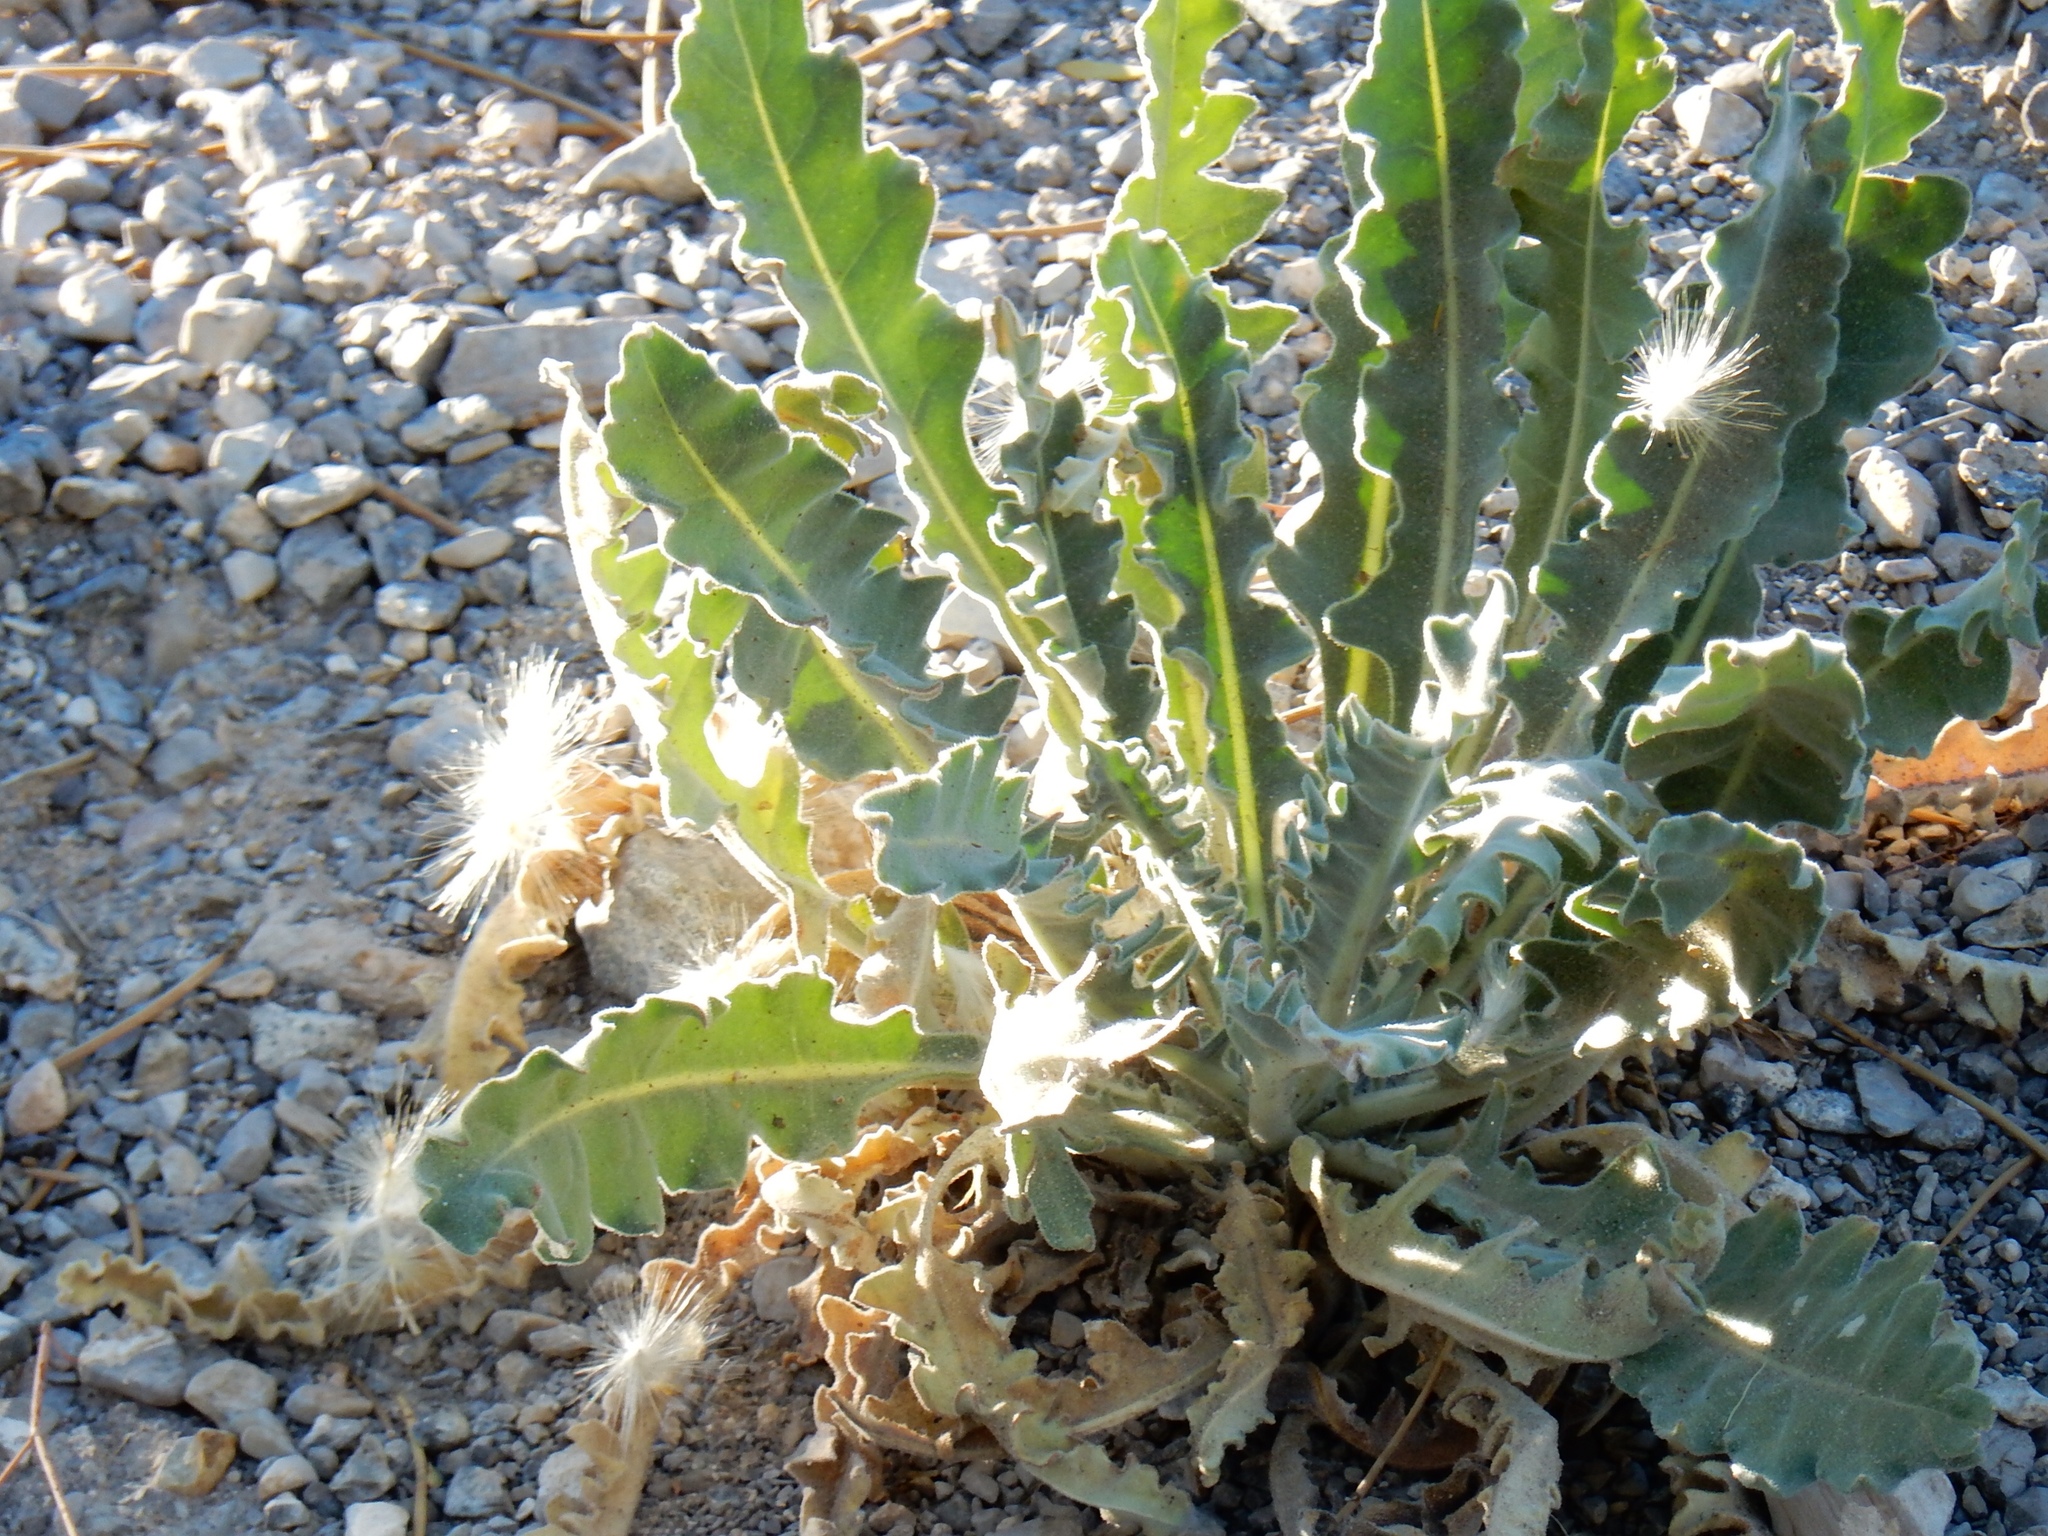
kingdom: Plantae
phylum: Tracheophyta
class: Magnoliopsida
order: Cornales
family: Loasaceae
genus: Mentzelia
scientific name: Mentzelia laevicaulis
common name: Smooth-stem blazingstar
